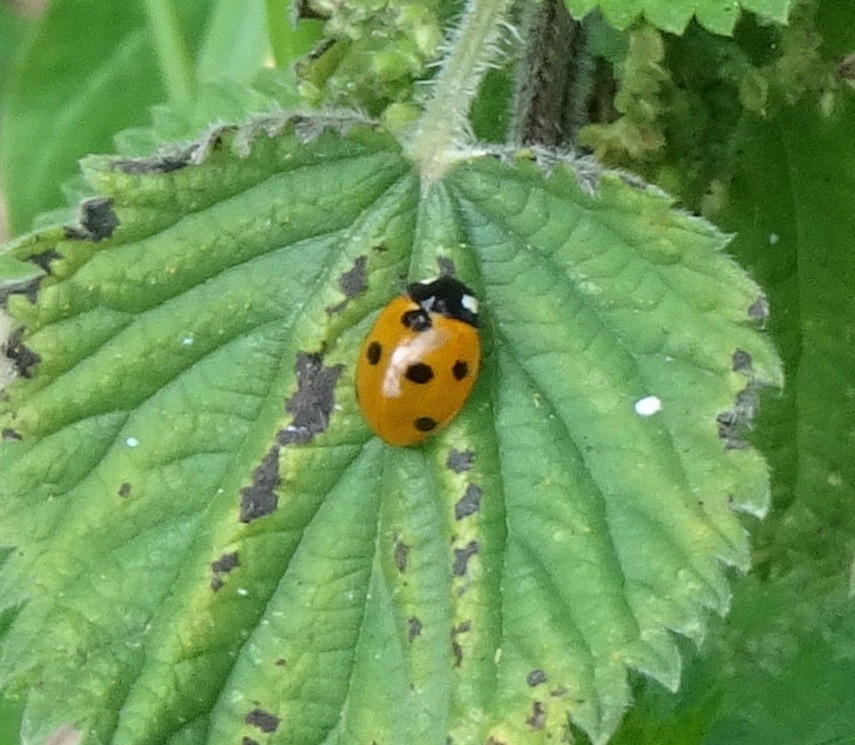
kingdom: Animalia
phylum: Arthropoda
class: Insecta
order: Coleoptera
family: Coccinellidae
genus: Coccinella
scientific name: Coccinella septempunctata
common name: Sevenspotted lady beetle
